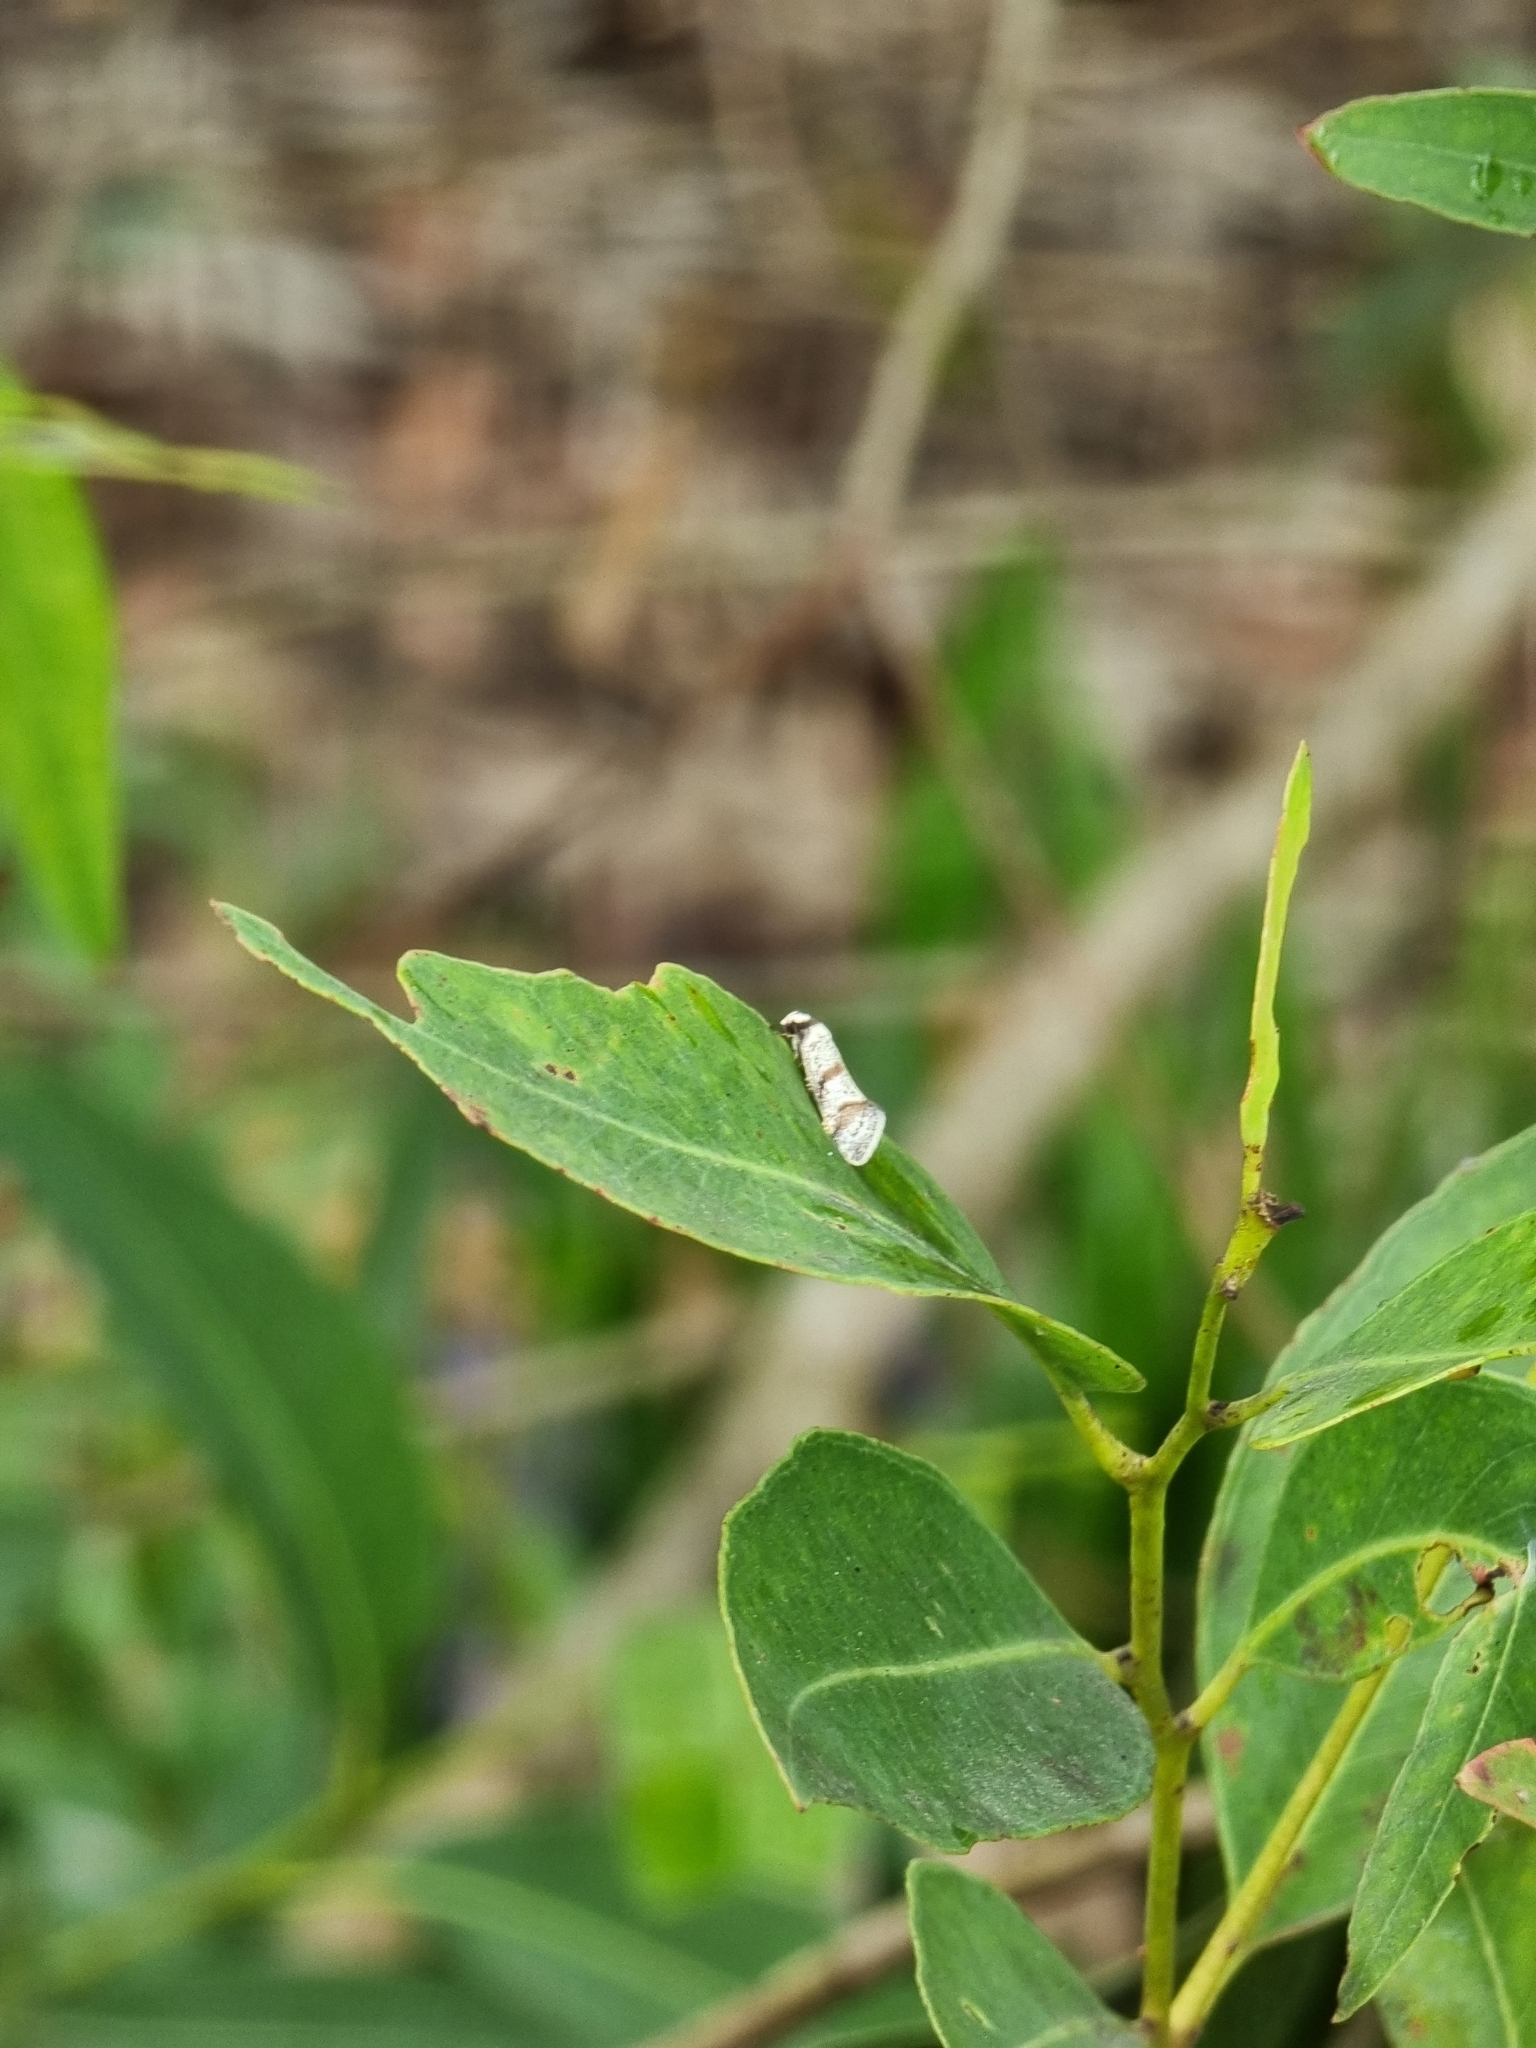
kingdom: Animalia
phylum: Arthropoda
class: Insecta
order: Lepidoptera
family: Oecophoridae
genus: Philobota
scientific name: Philobota curvilinea
